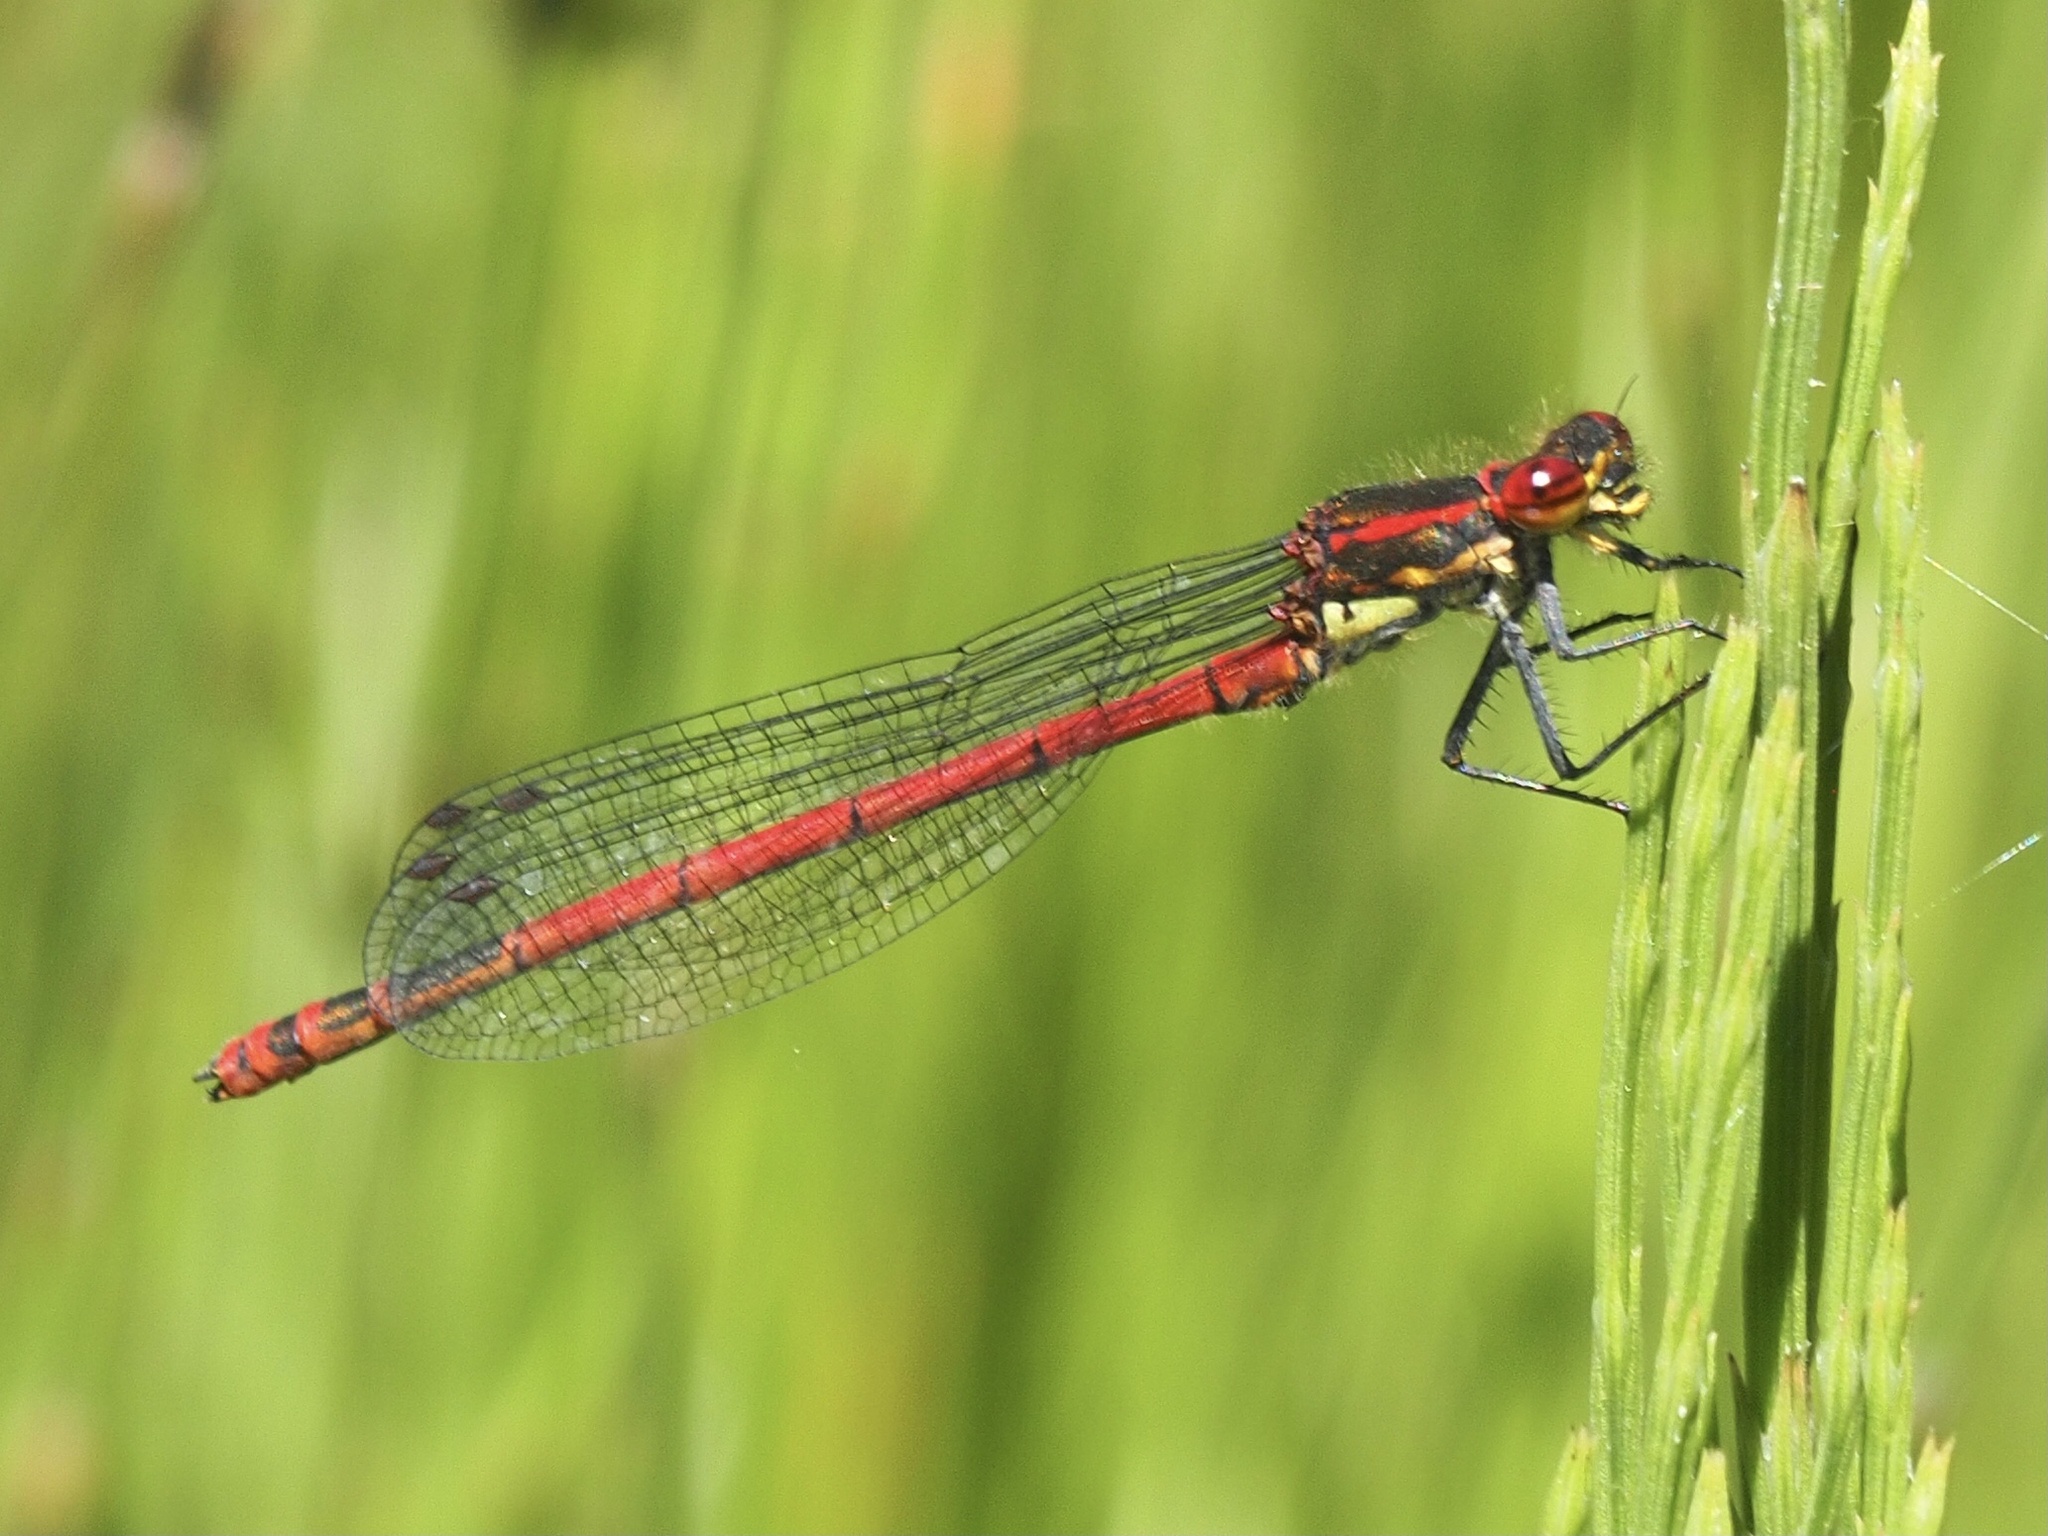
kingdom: Animalia
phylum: Arthropoda
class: Insecta
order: Odonata
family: Coenagrionidae
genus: Pyrrhosoma
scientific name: Pyrrhosoma nymphula
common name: Large red damsel
